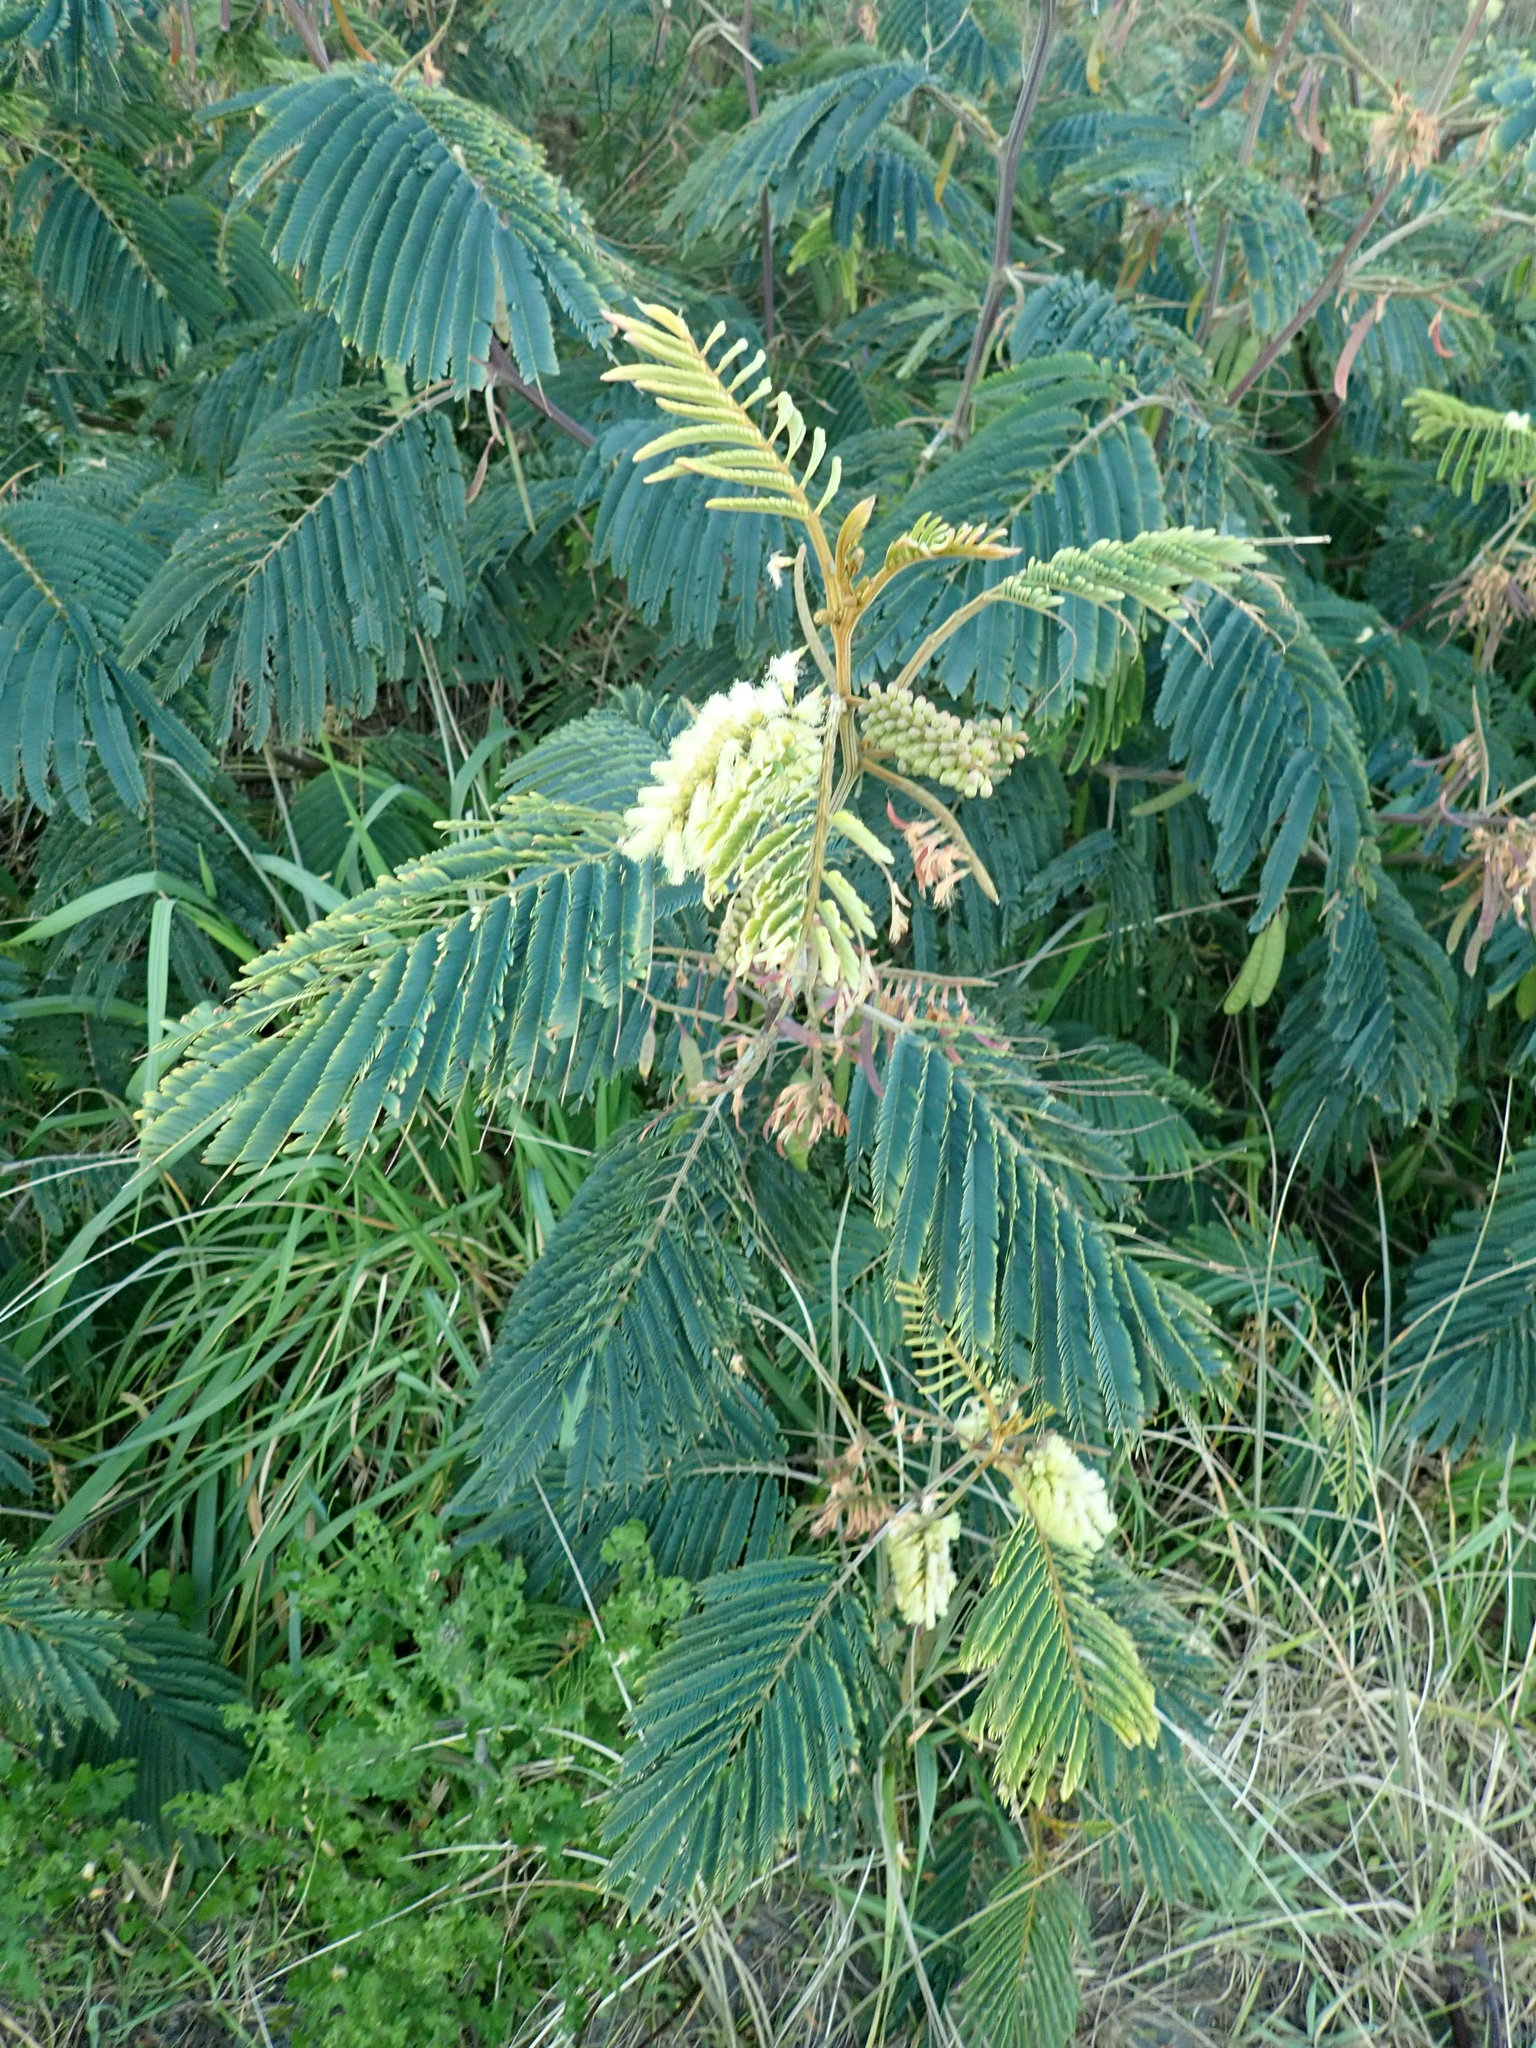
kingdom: Plantae
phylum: Tracheophyta
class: Magnoliopsida
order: Fabales
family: Fabaceae
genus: Paraserianthes
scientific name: Paraserianthes lophantha
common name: Plume albizia
